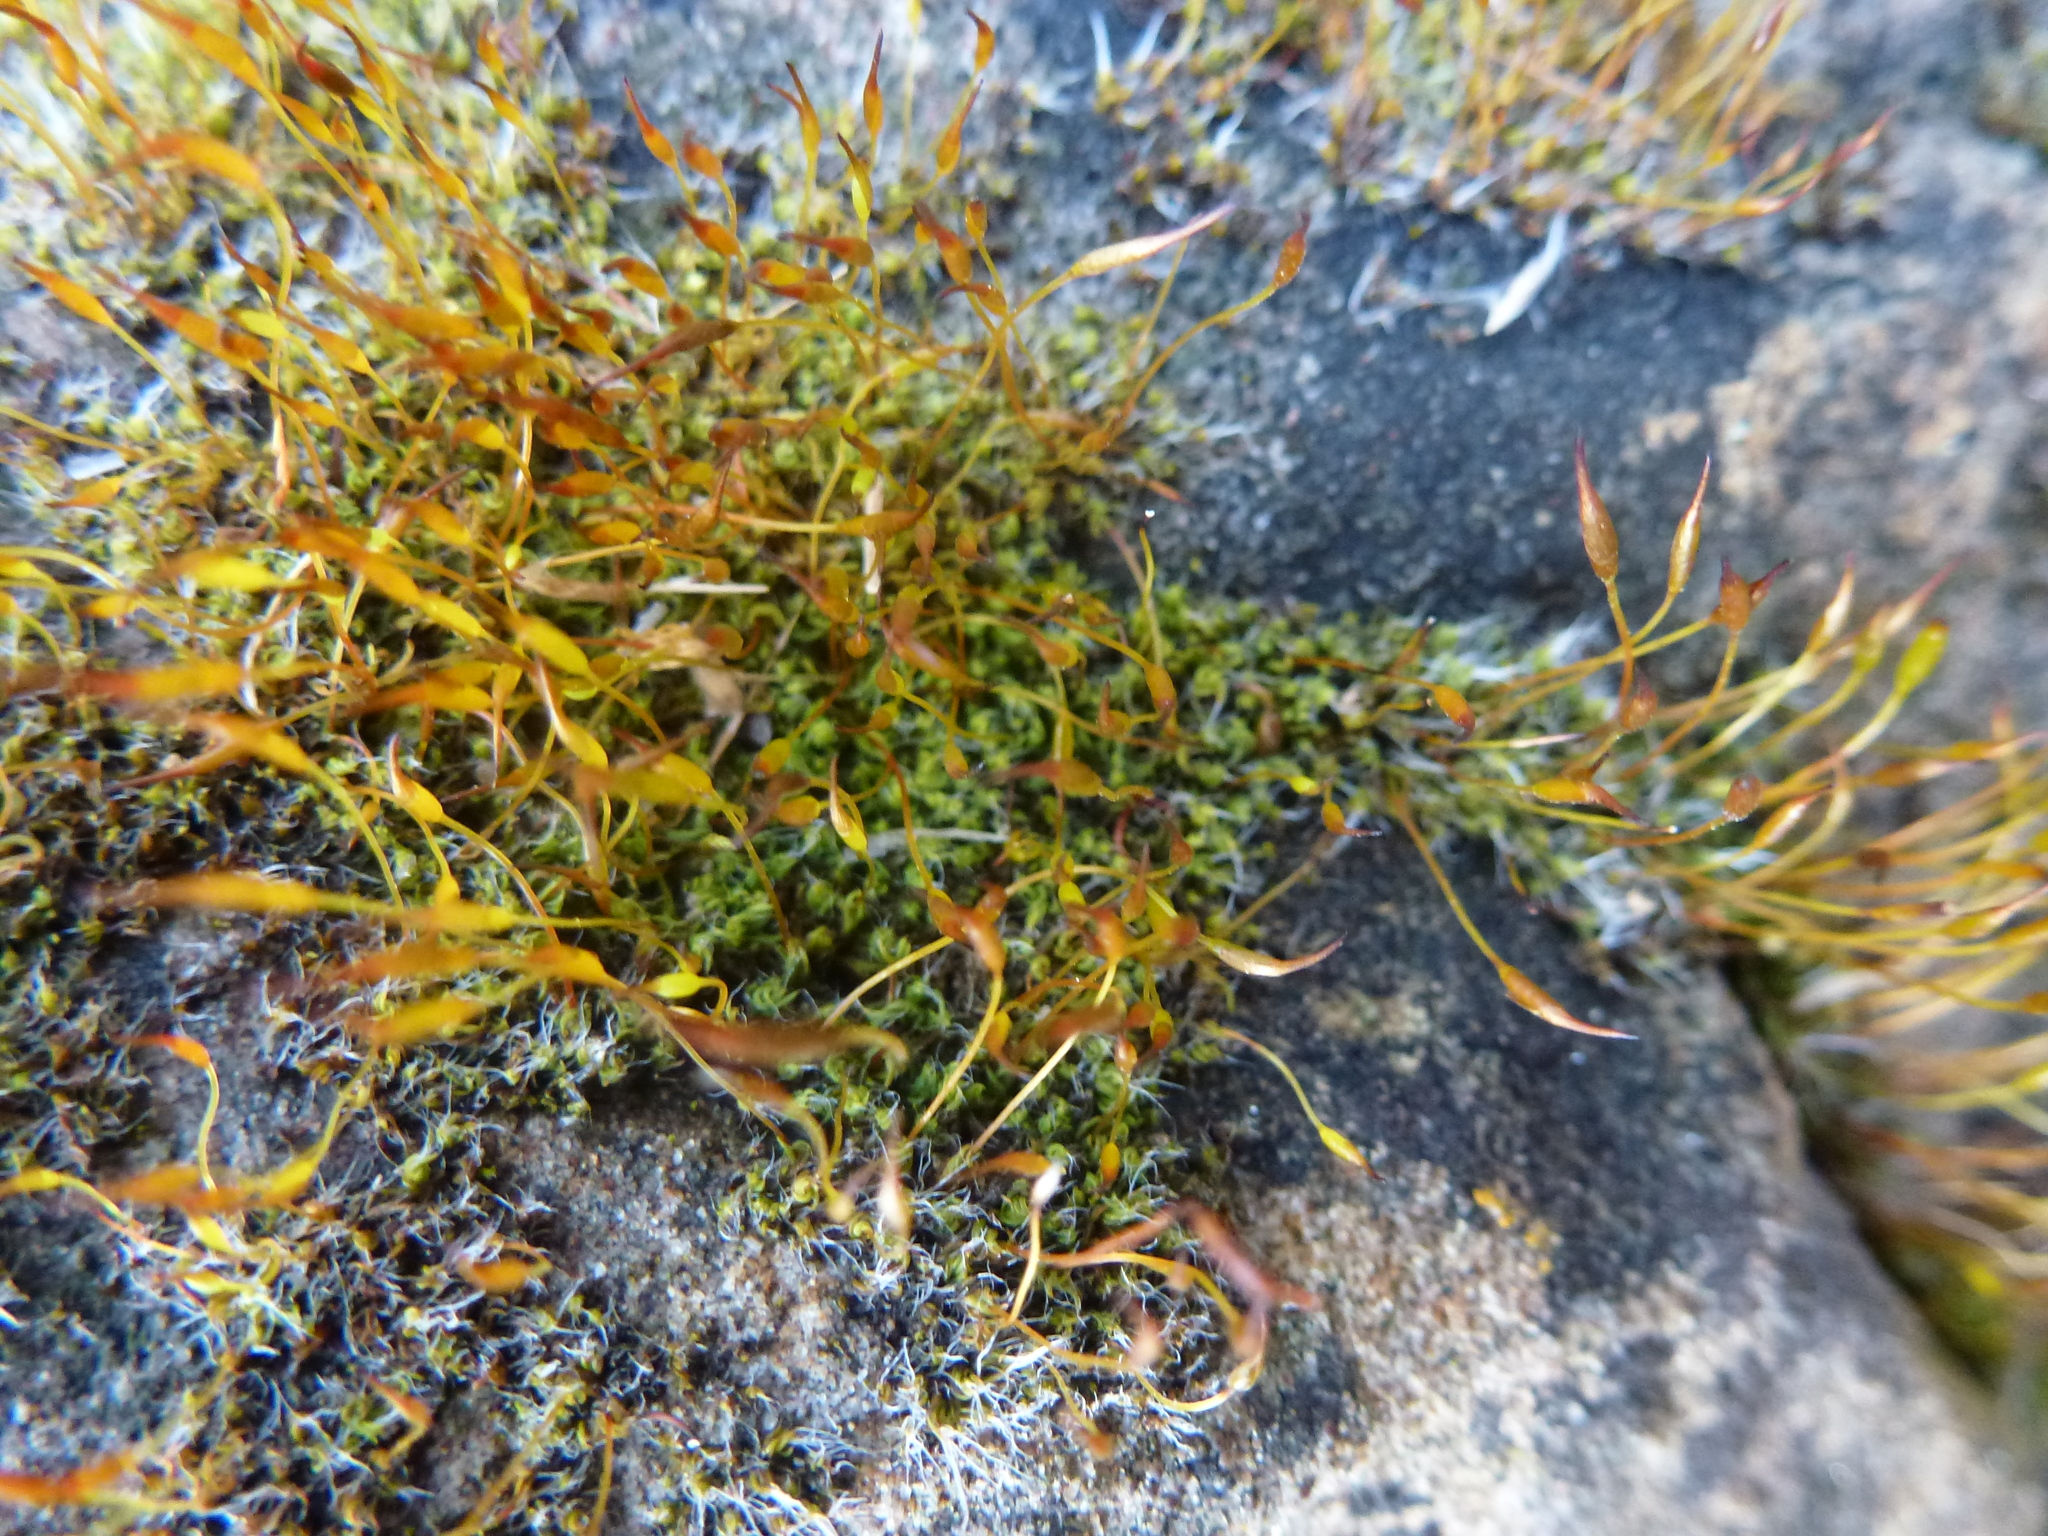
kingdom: Plantae
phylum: Bryophyta
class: Bryopsida
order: Pottiales
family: Pottiaceae
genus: Tortula
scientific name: Tortula muralis
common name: Wall screw-moss
